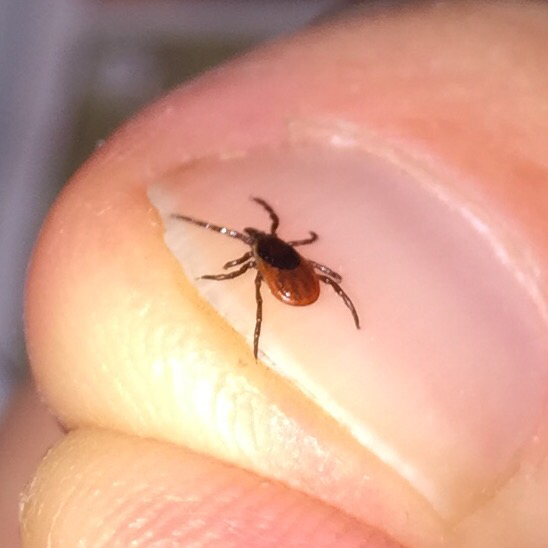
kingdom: Animalia
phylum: Arthropoda
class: Arachnida
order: Ixodida
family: Ixodidae
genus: Ixodes
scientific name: Ixodes scapularis
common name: Black legged tick
